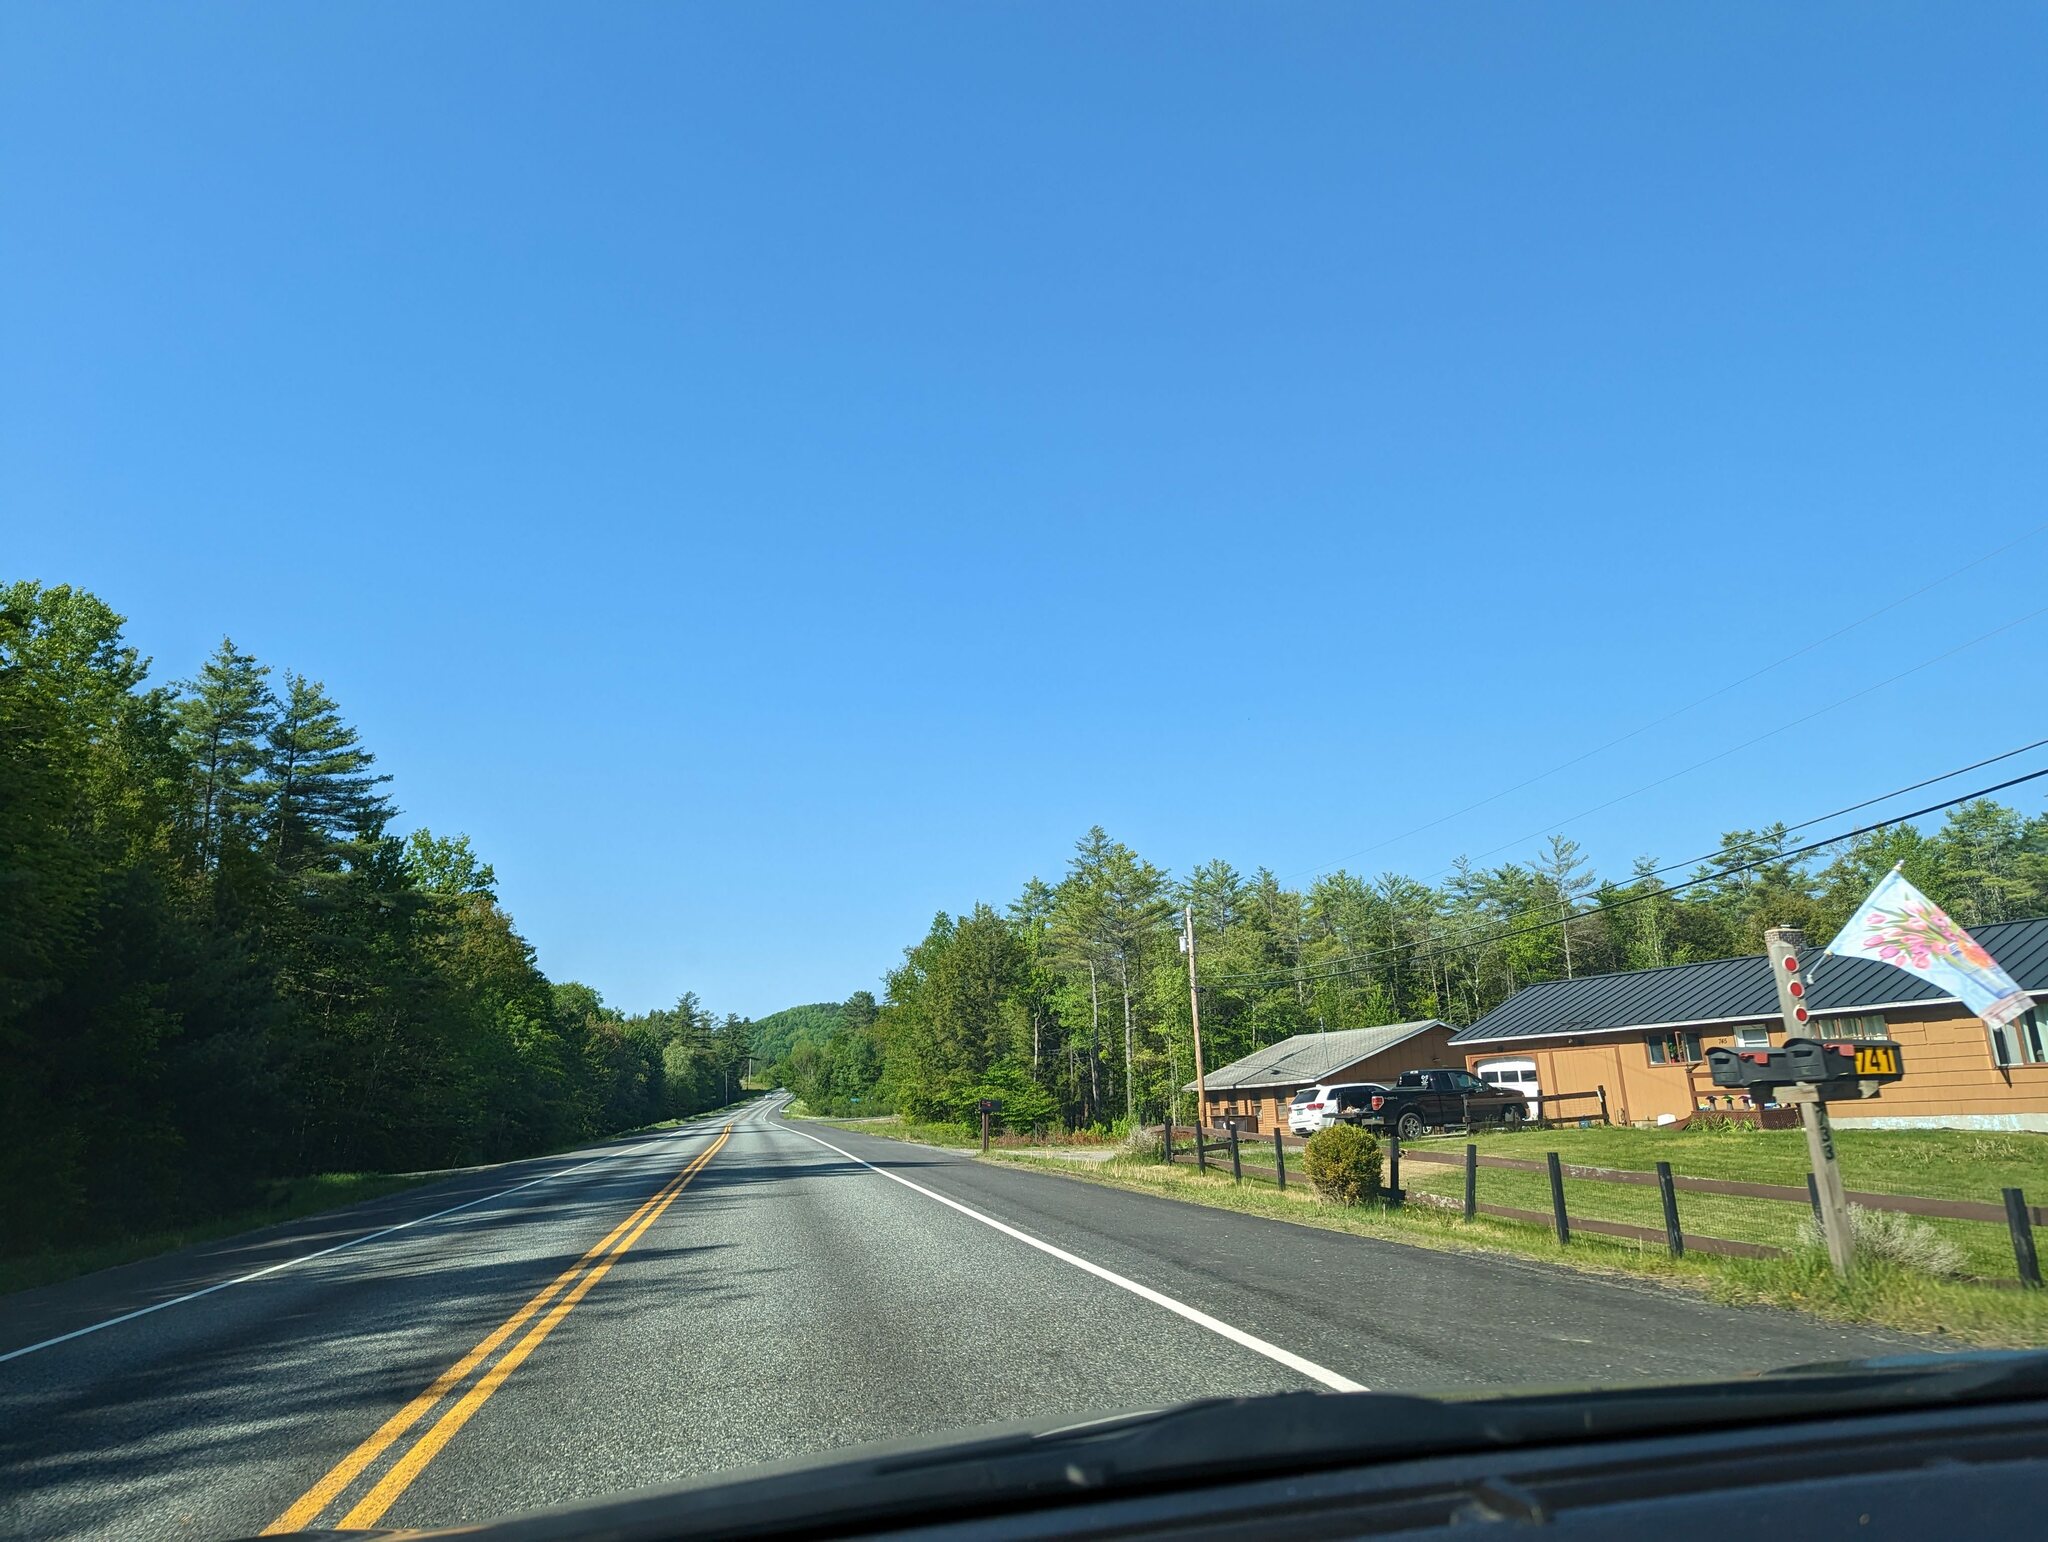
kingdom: Plantae
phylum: Tracheophyta
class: Pinopsida
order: Pinales
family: Pinaceae
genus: Pinus
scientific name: Pinus strobus
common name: Weymouth pine
